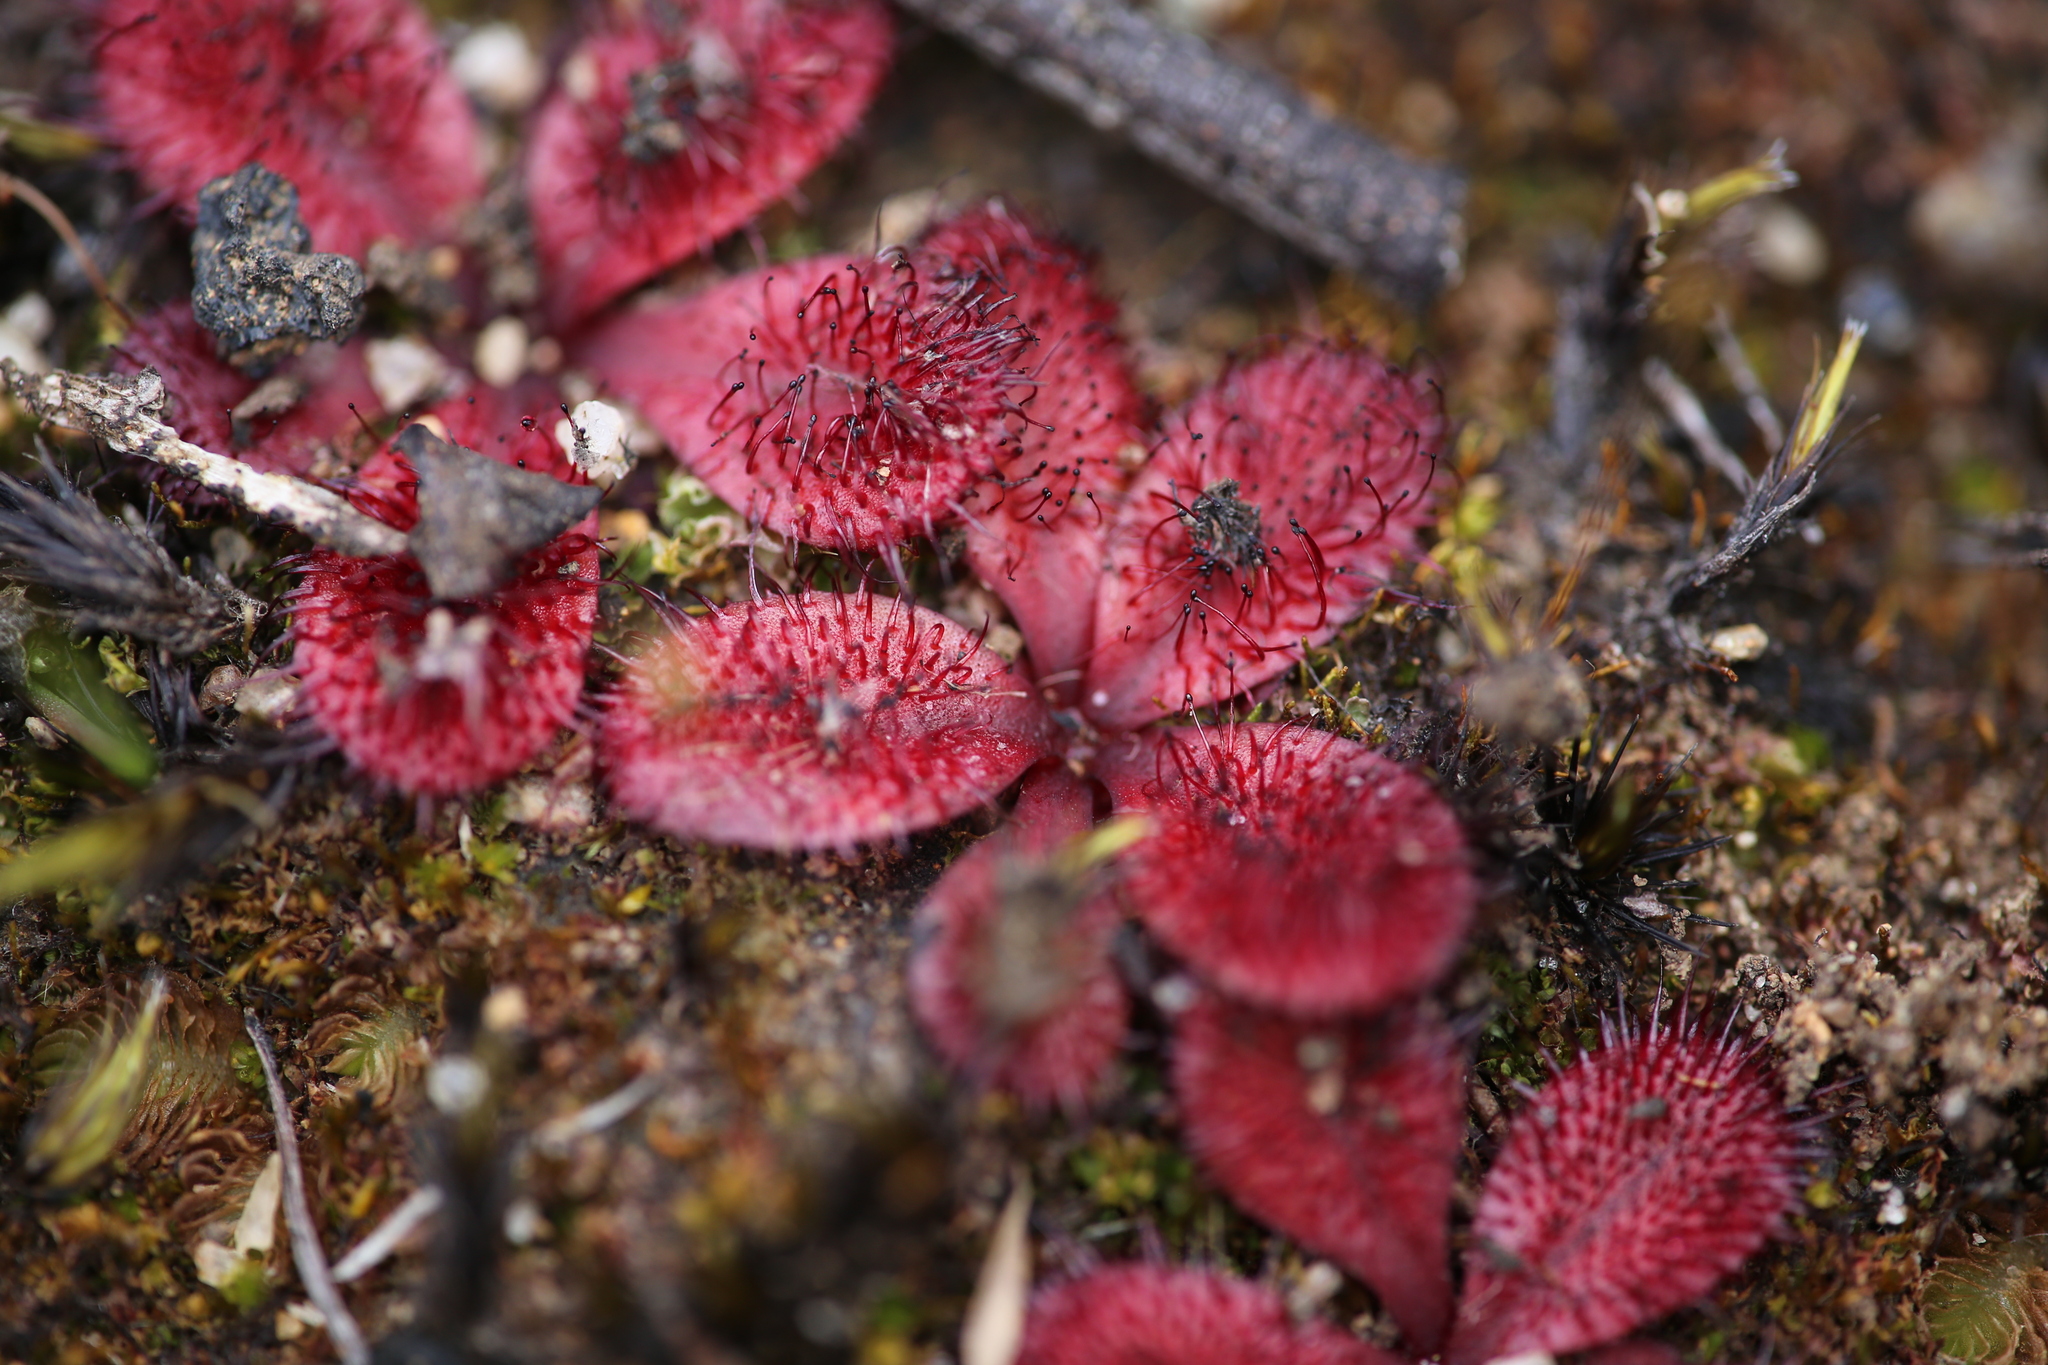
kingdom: Plantae
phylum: Tracheophyta
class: Magnoliopsida
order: Caryophyllales
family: Droseraceae
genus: Drosera
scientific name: Drosera rosulata
